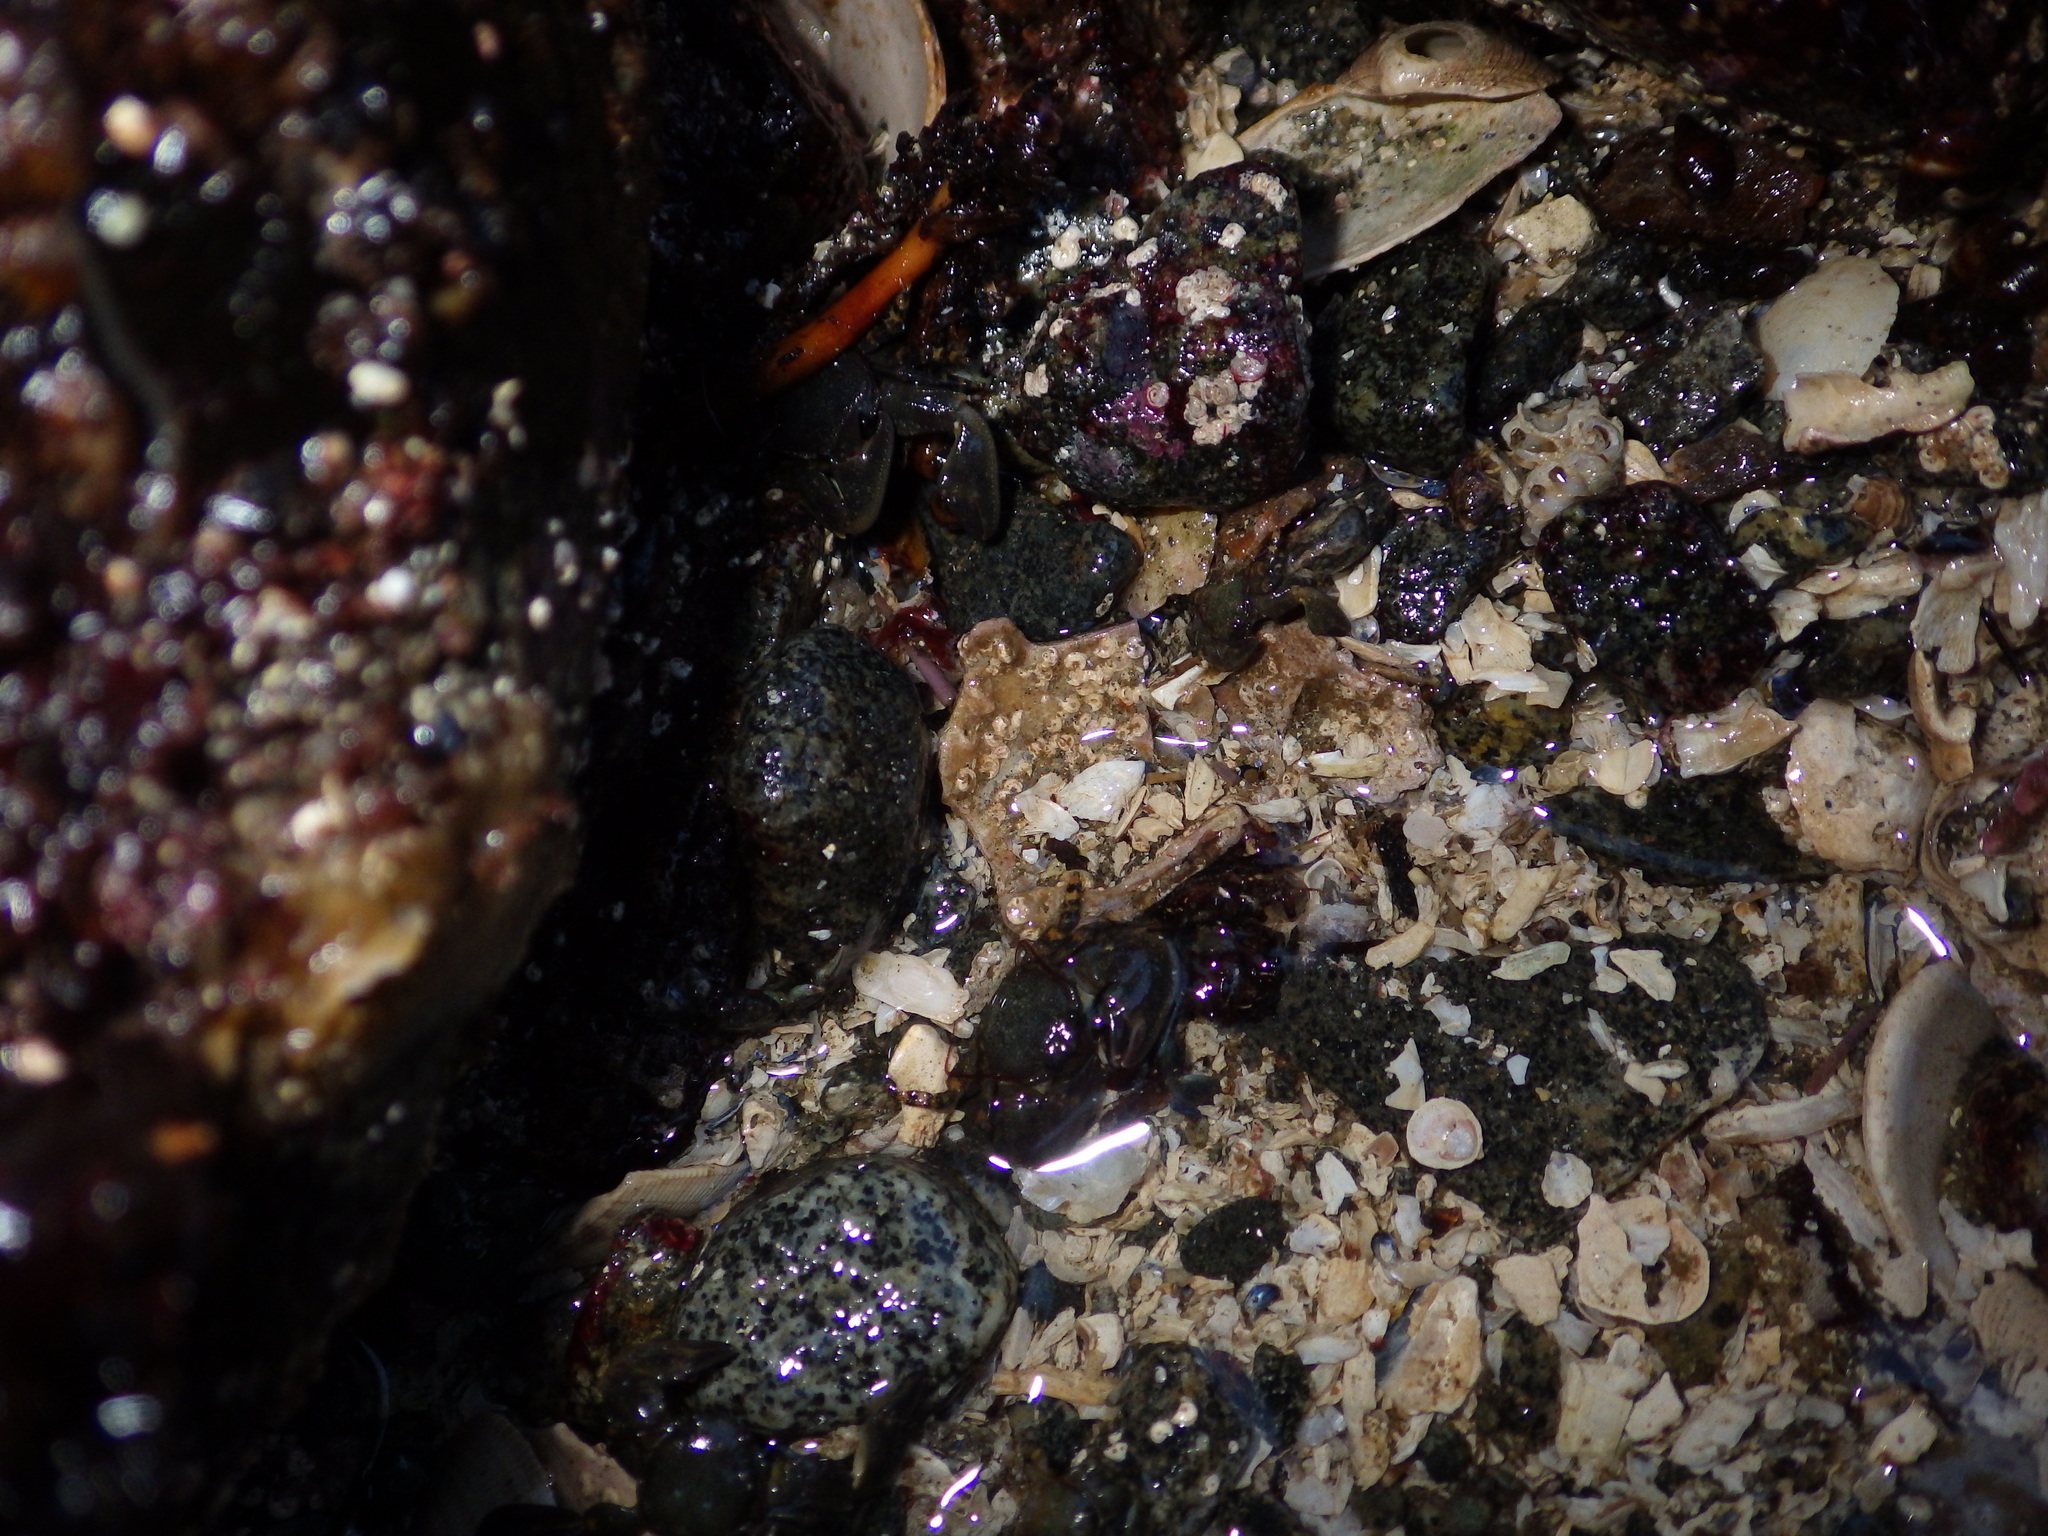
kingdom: Animalia
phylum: Arthropoda
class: Malacostraca
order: Decapoda
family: Porcellanidae
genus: Petrolisthes
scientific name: Petrolisthes
